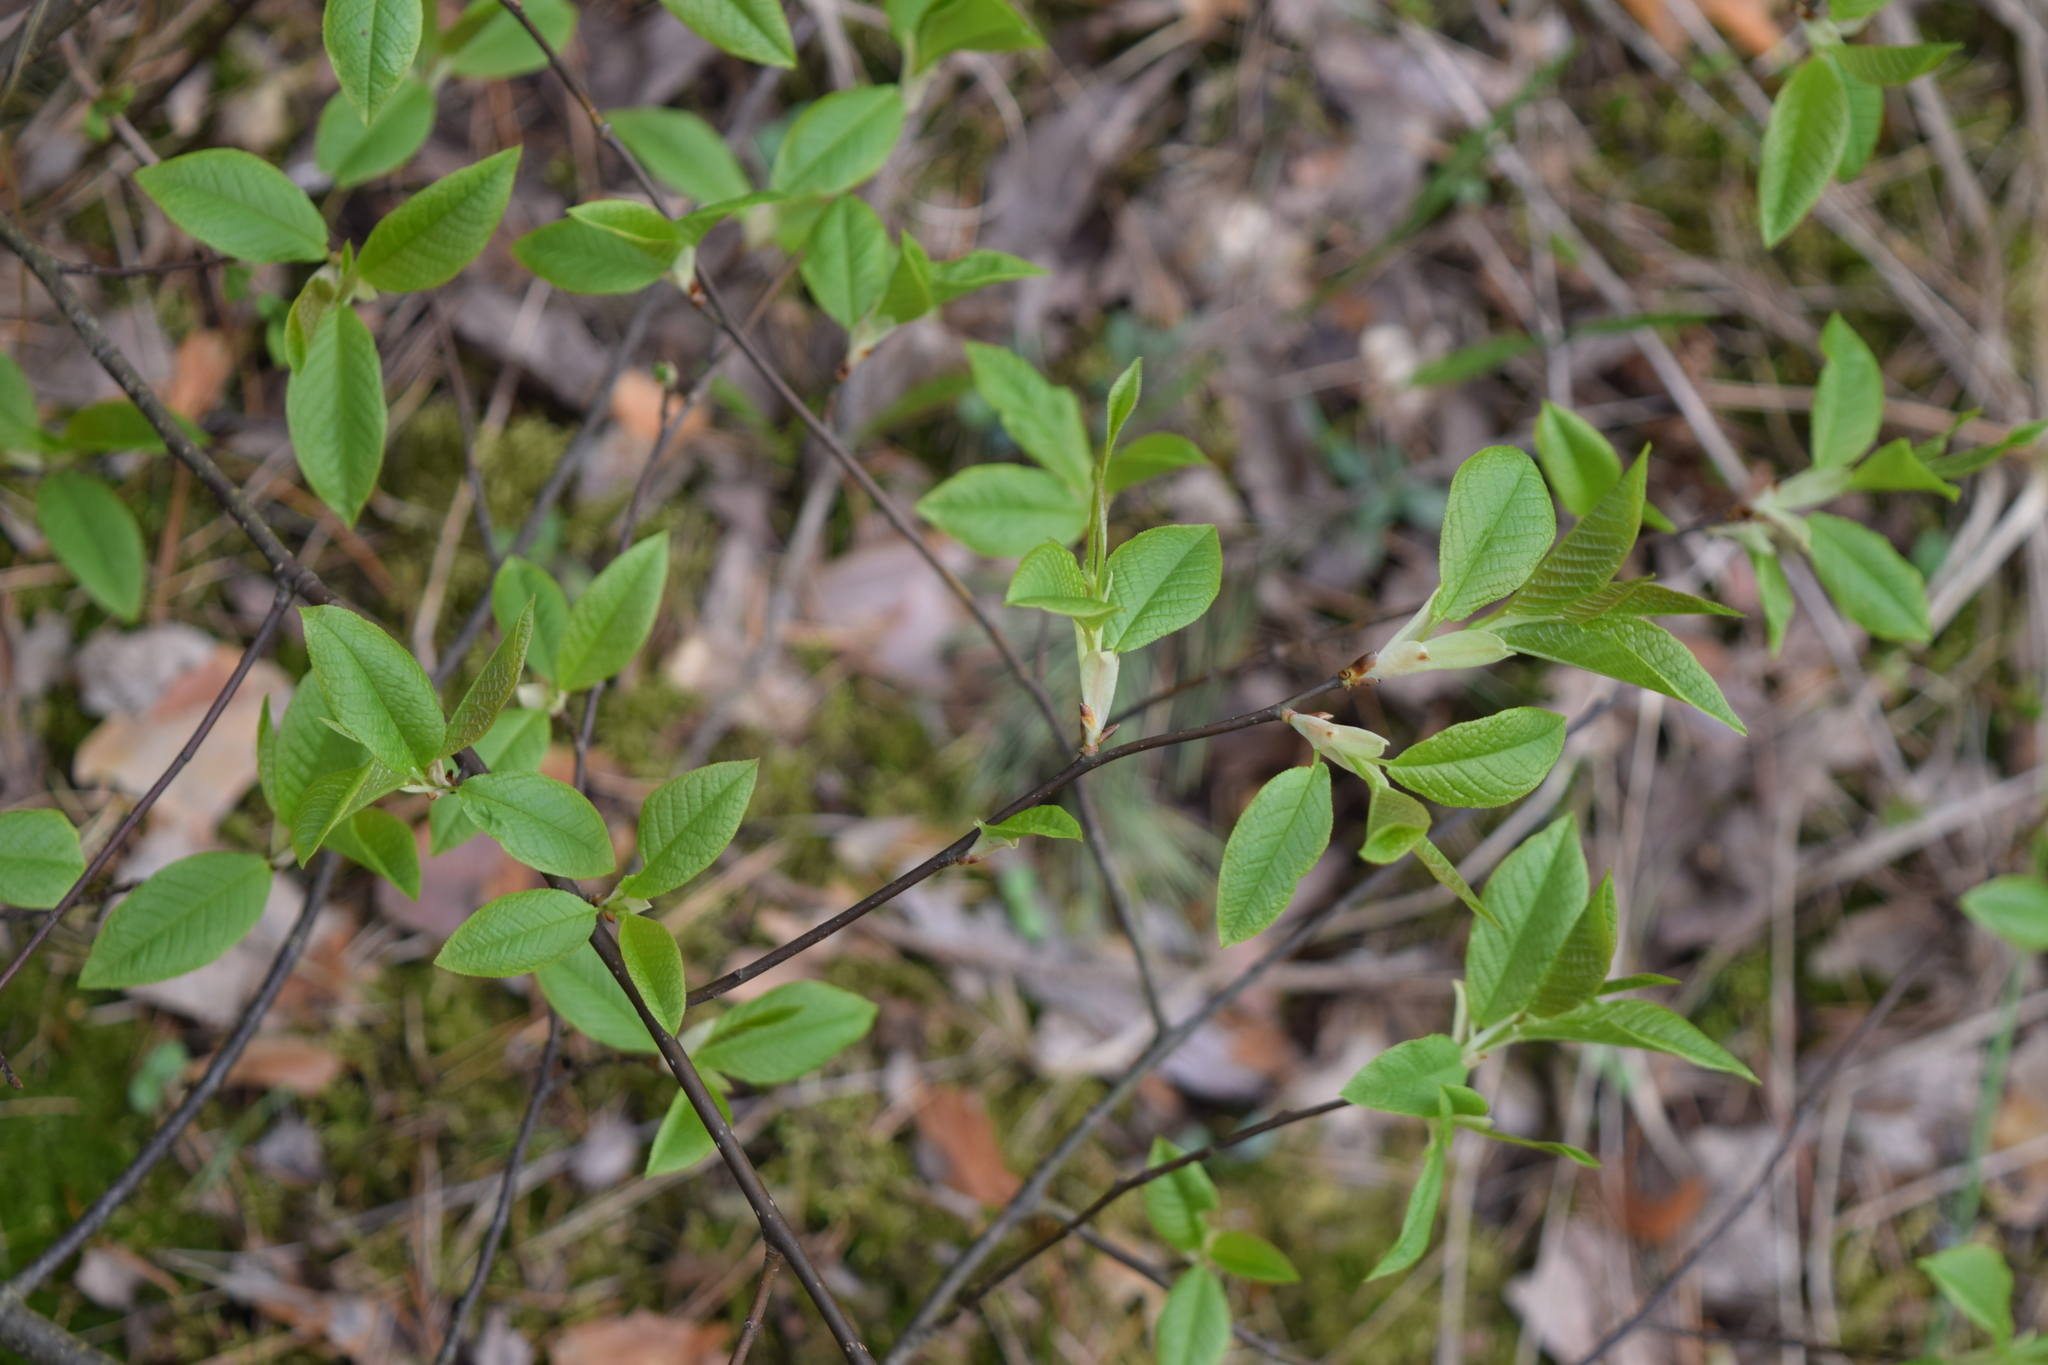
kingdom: Plantae
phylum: Tracheophyta
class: Magnoliopsida
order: Rosales
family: Rosaceae
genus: Prunus
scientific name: Prunus padus
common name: Bird cherry
